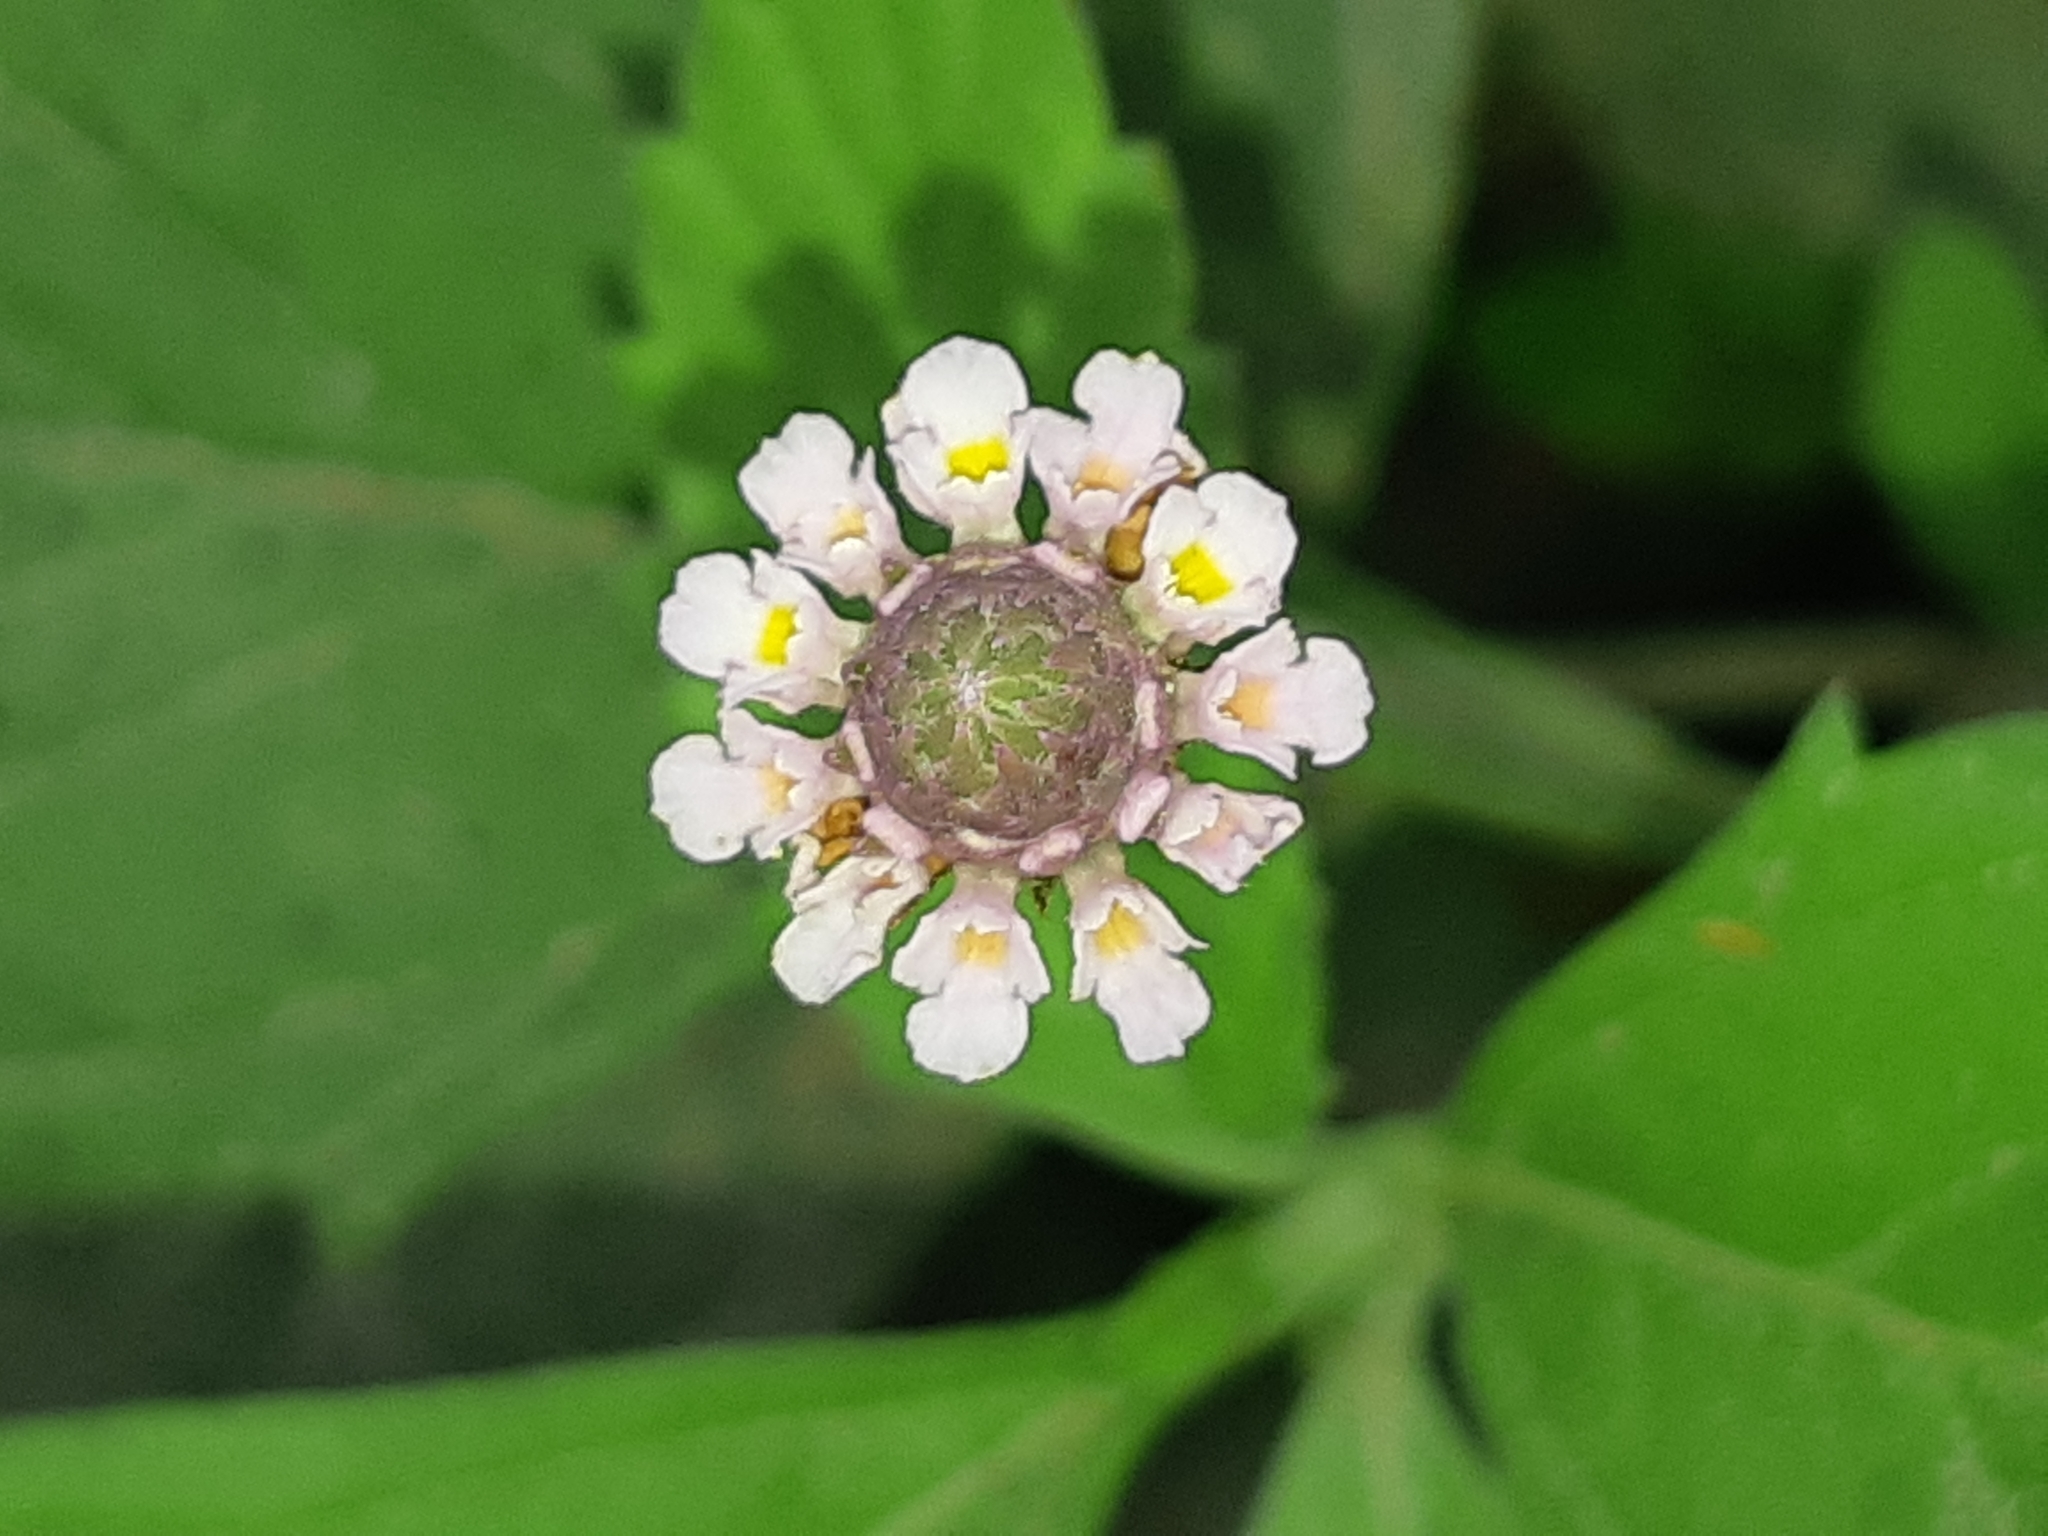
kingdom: Plantae
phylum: Tracheophyta
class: Magnoliopsida
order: Lamiales
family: Verbenaceae
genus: Phyla
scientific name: Phyla nodiflora
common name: Frogfruit
